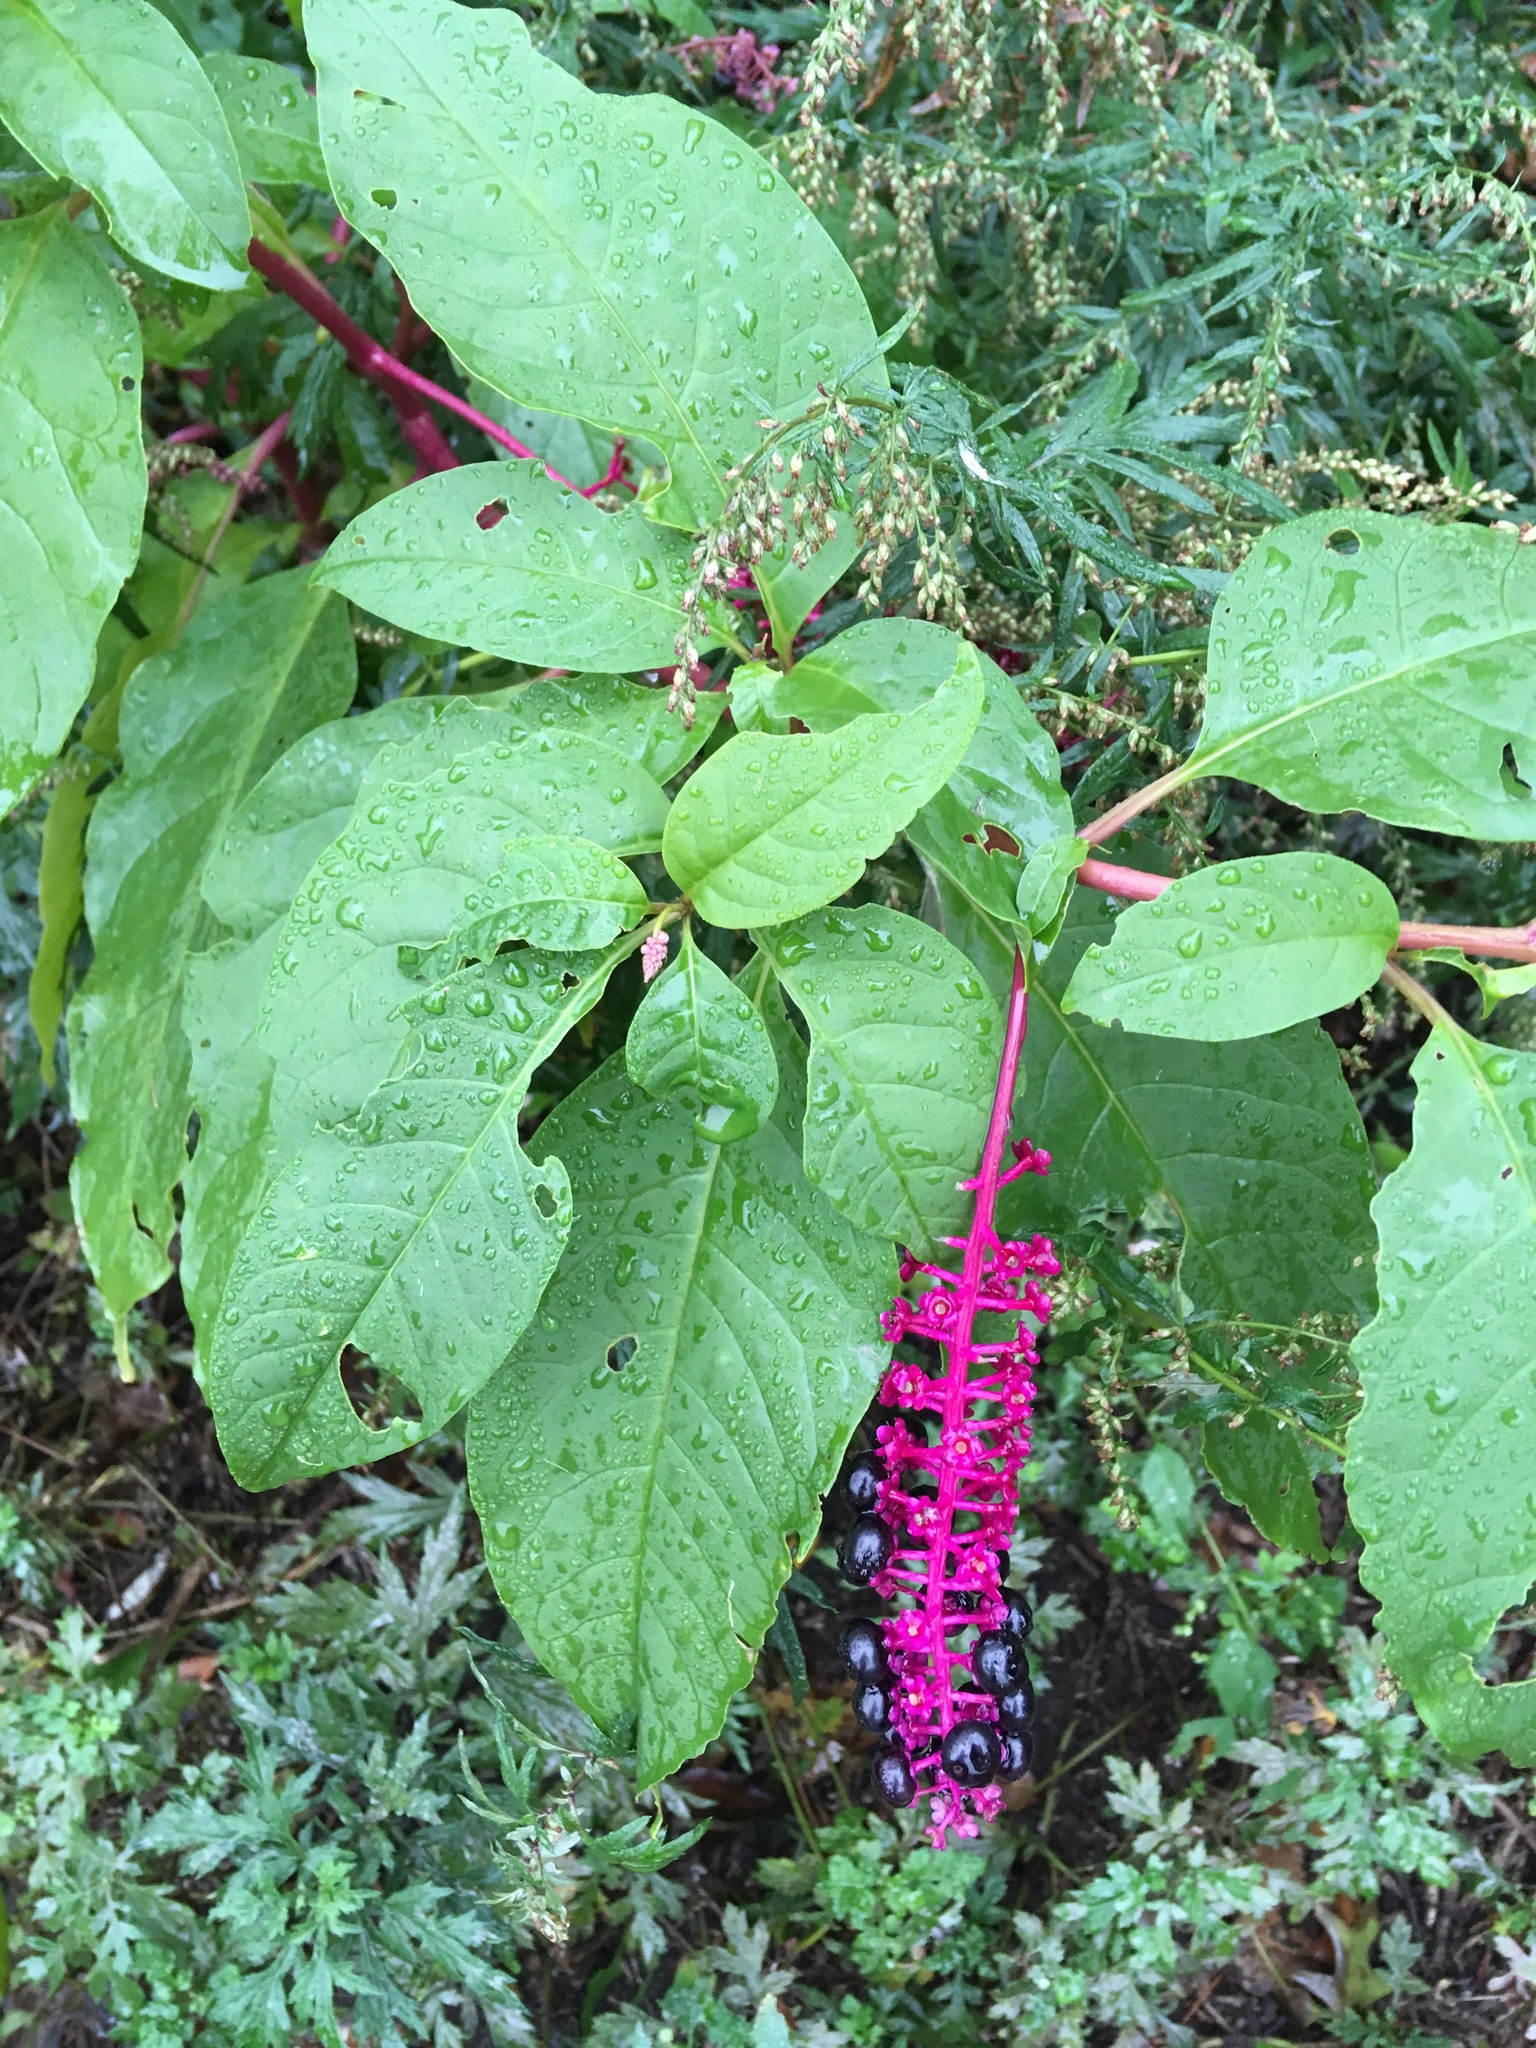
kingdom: Plantae
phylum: Tracheophyta
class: Magnoliopsida
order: Caryophyllales
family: Phytolaccaceae
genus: Phytolacca
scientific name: Phytolacca americana
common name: American pokeweed
